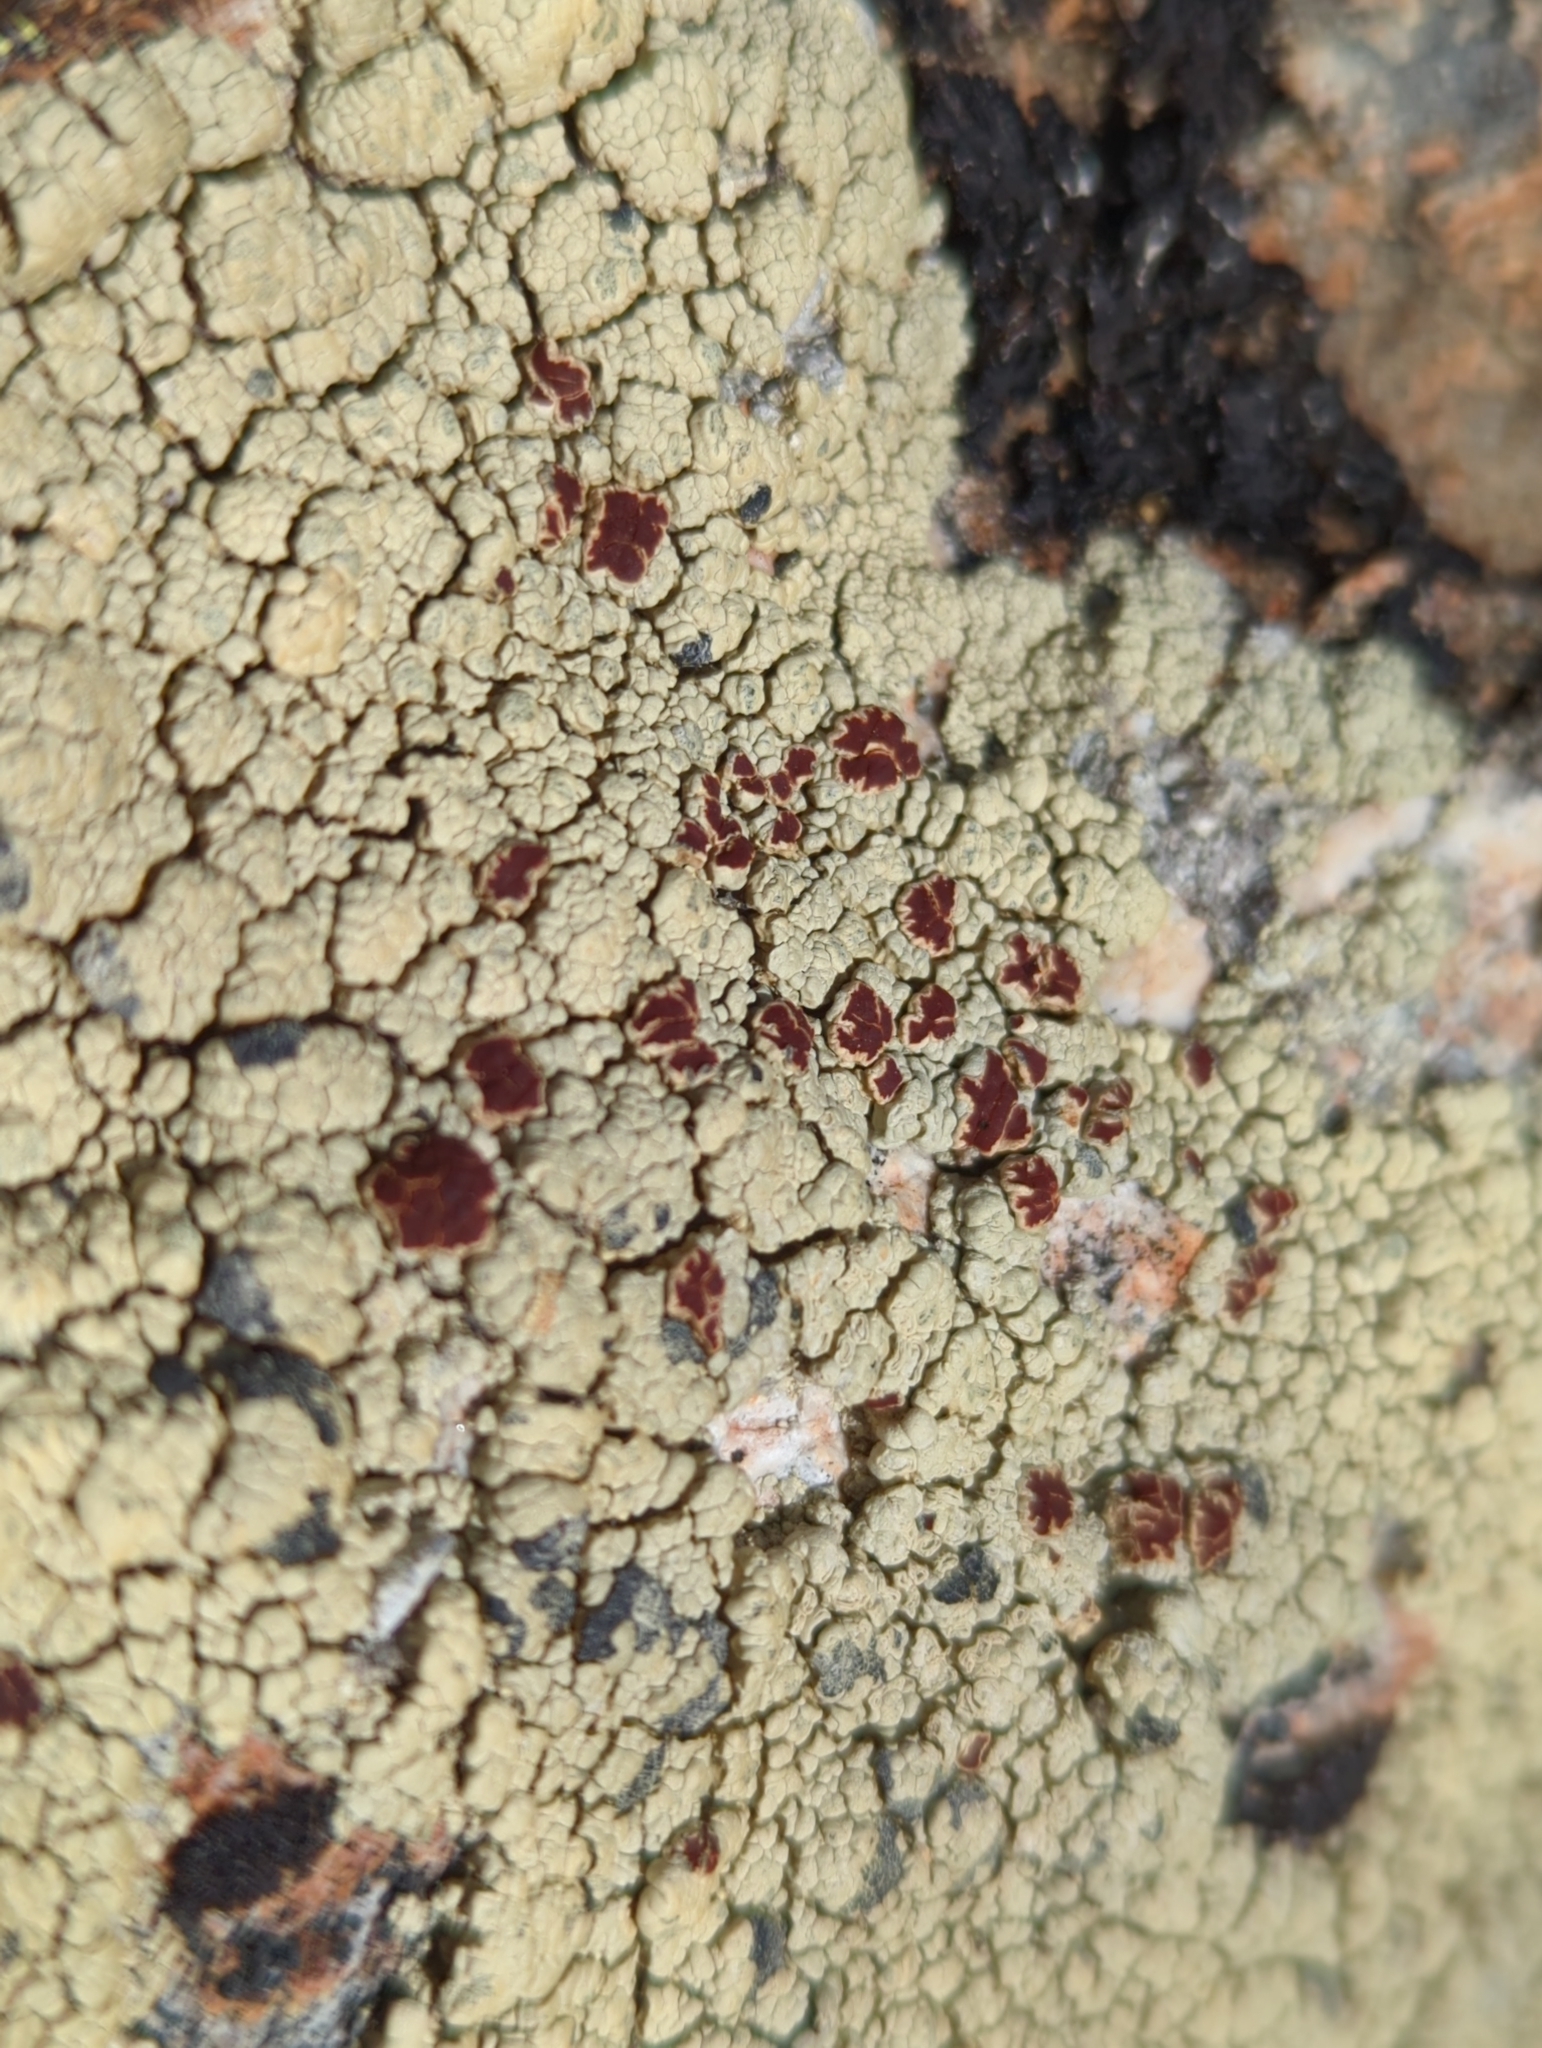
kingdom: Fungi
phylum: Ascomycota
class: Lecanoromycetes
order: Umbilicariales
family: Ophioparmaceae
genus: Ophioparma
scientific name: Ophioparma ventosa
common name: Blood-spot
